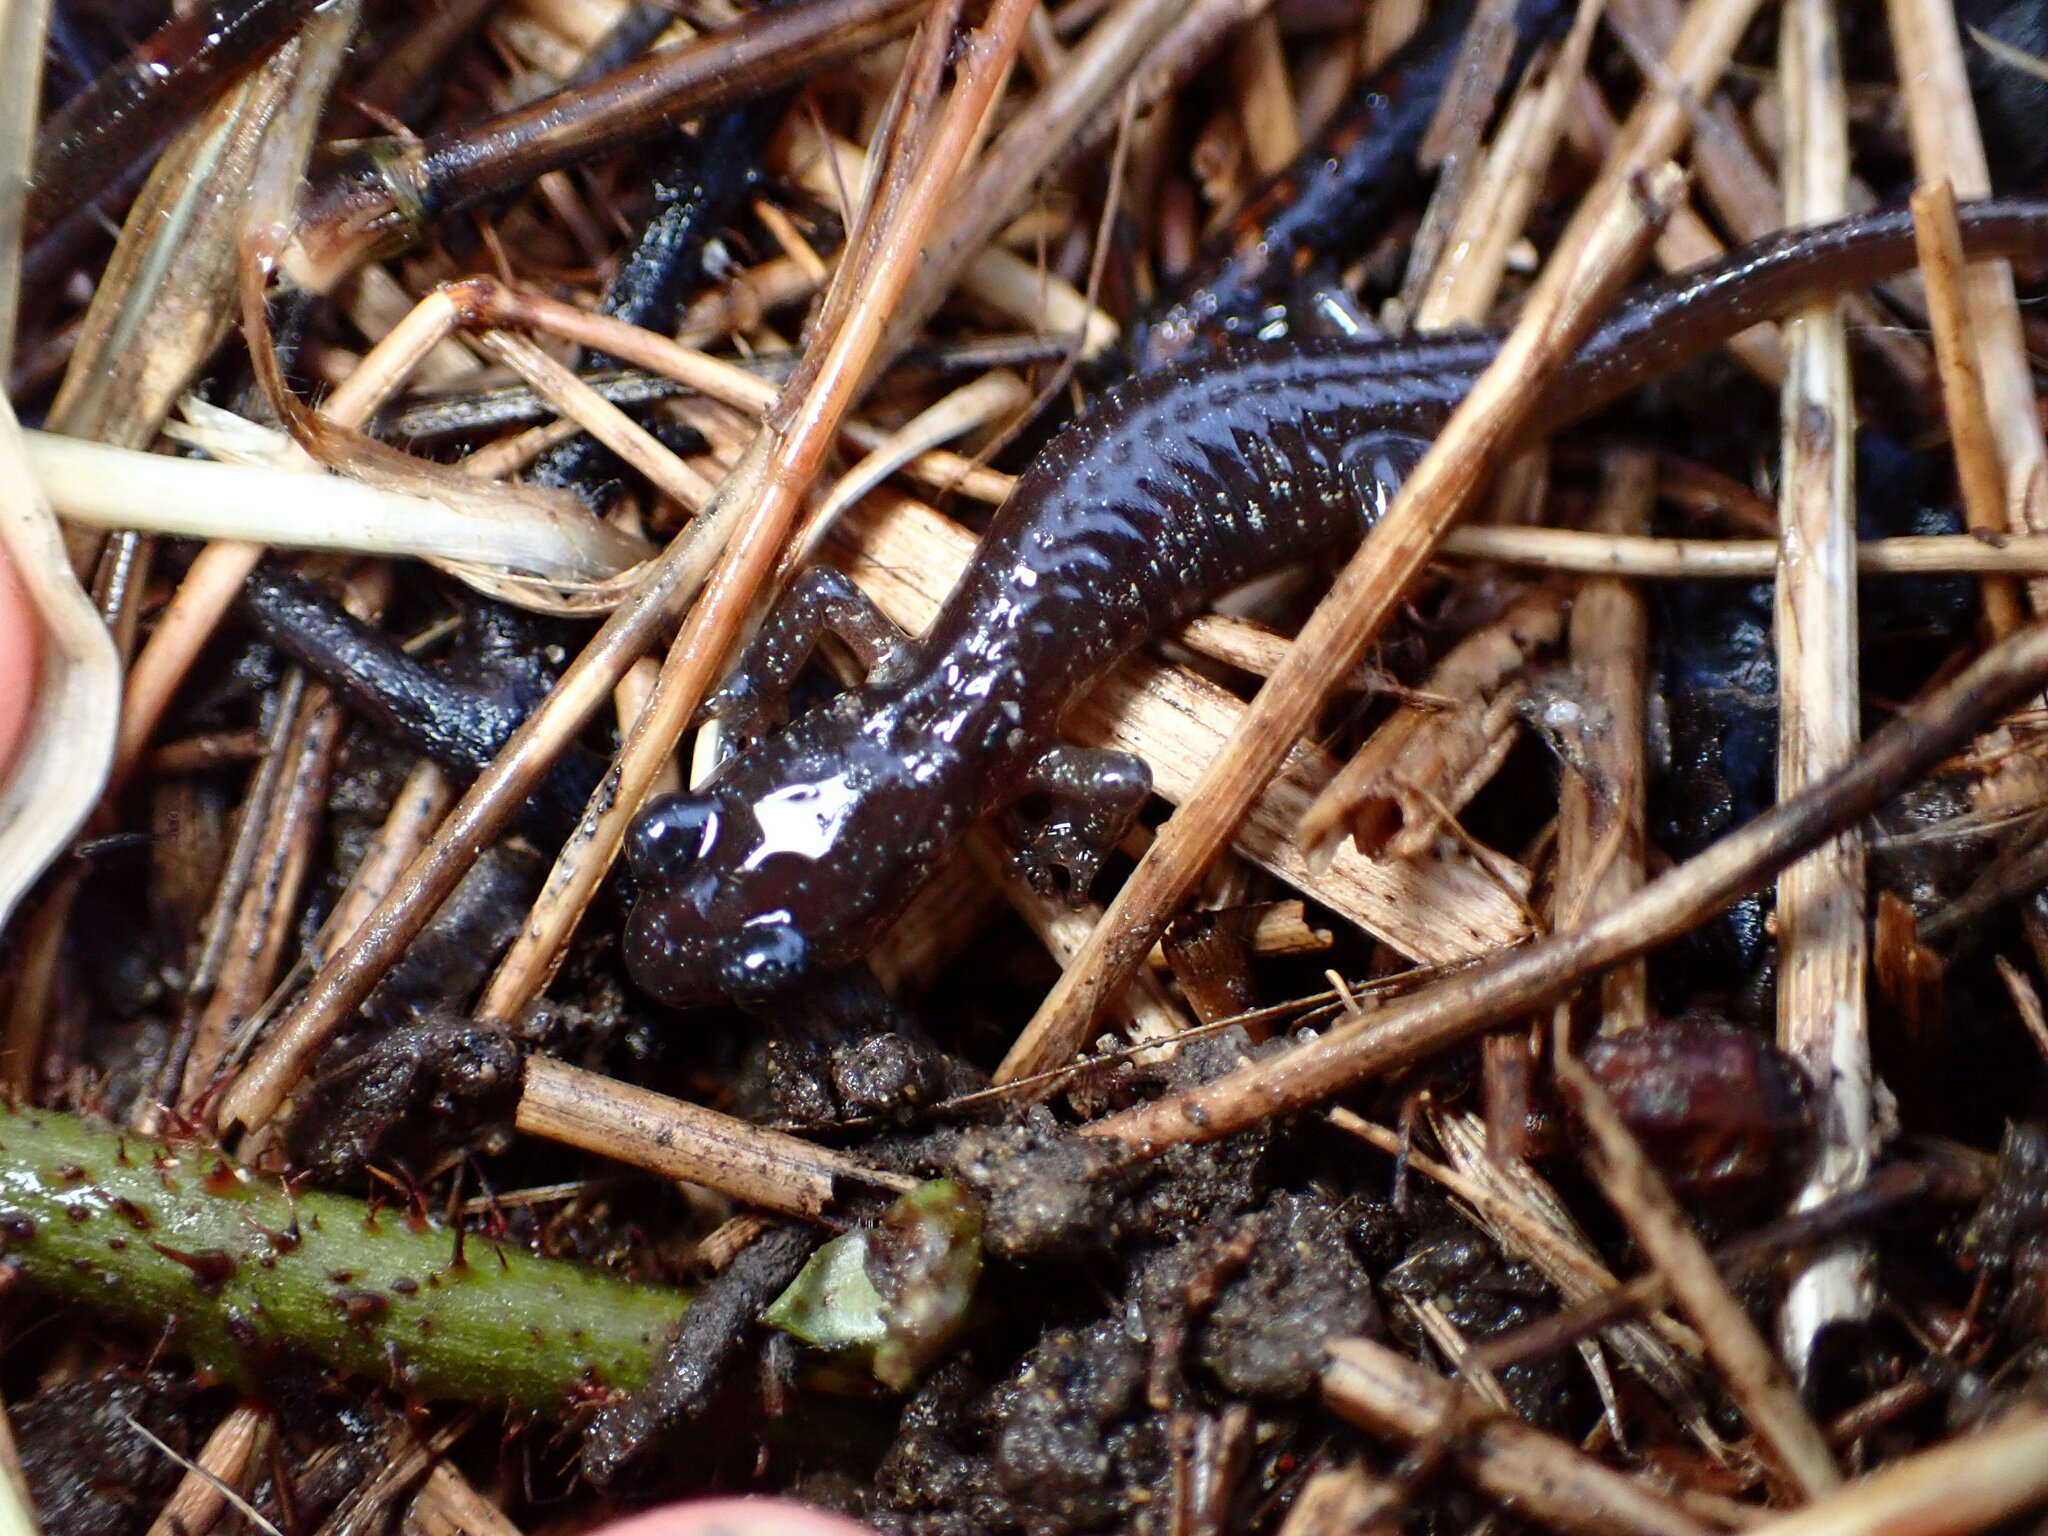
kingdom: Animalia
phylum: Chordata
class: Amphibia
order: Caudata
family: Plethodontidae
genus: Aneides
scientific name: Aneides lugubris
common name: Arboreal salamander
